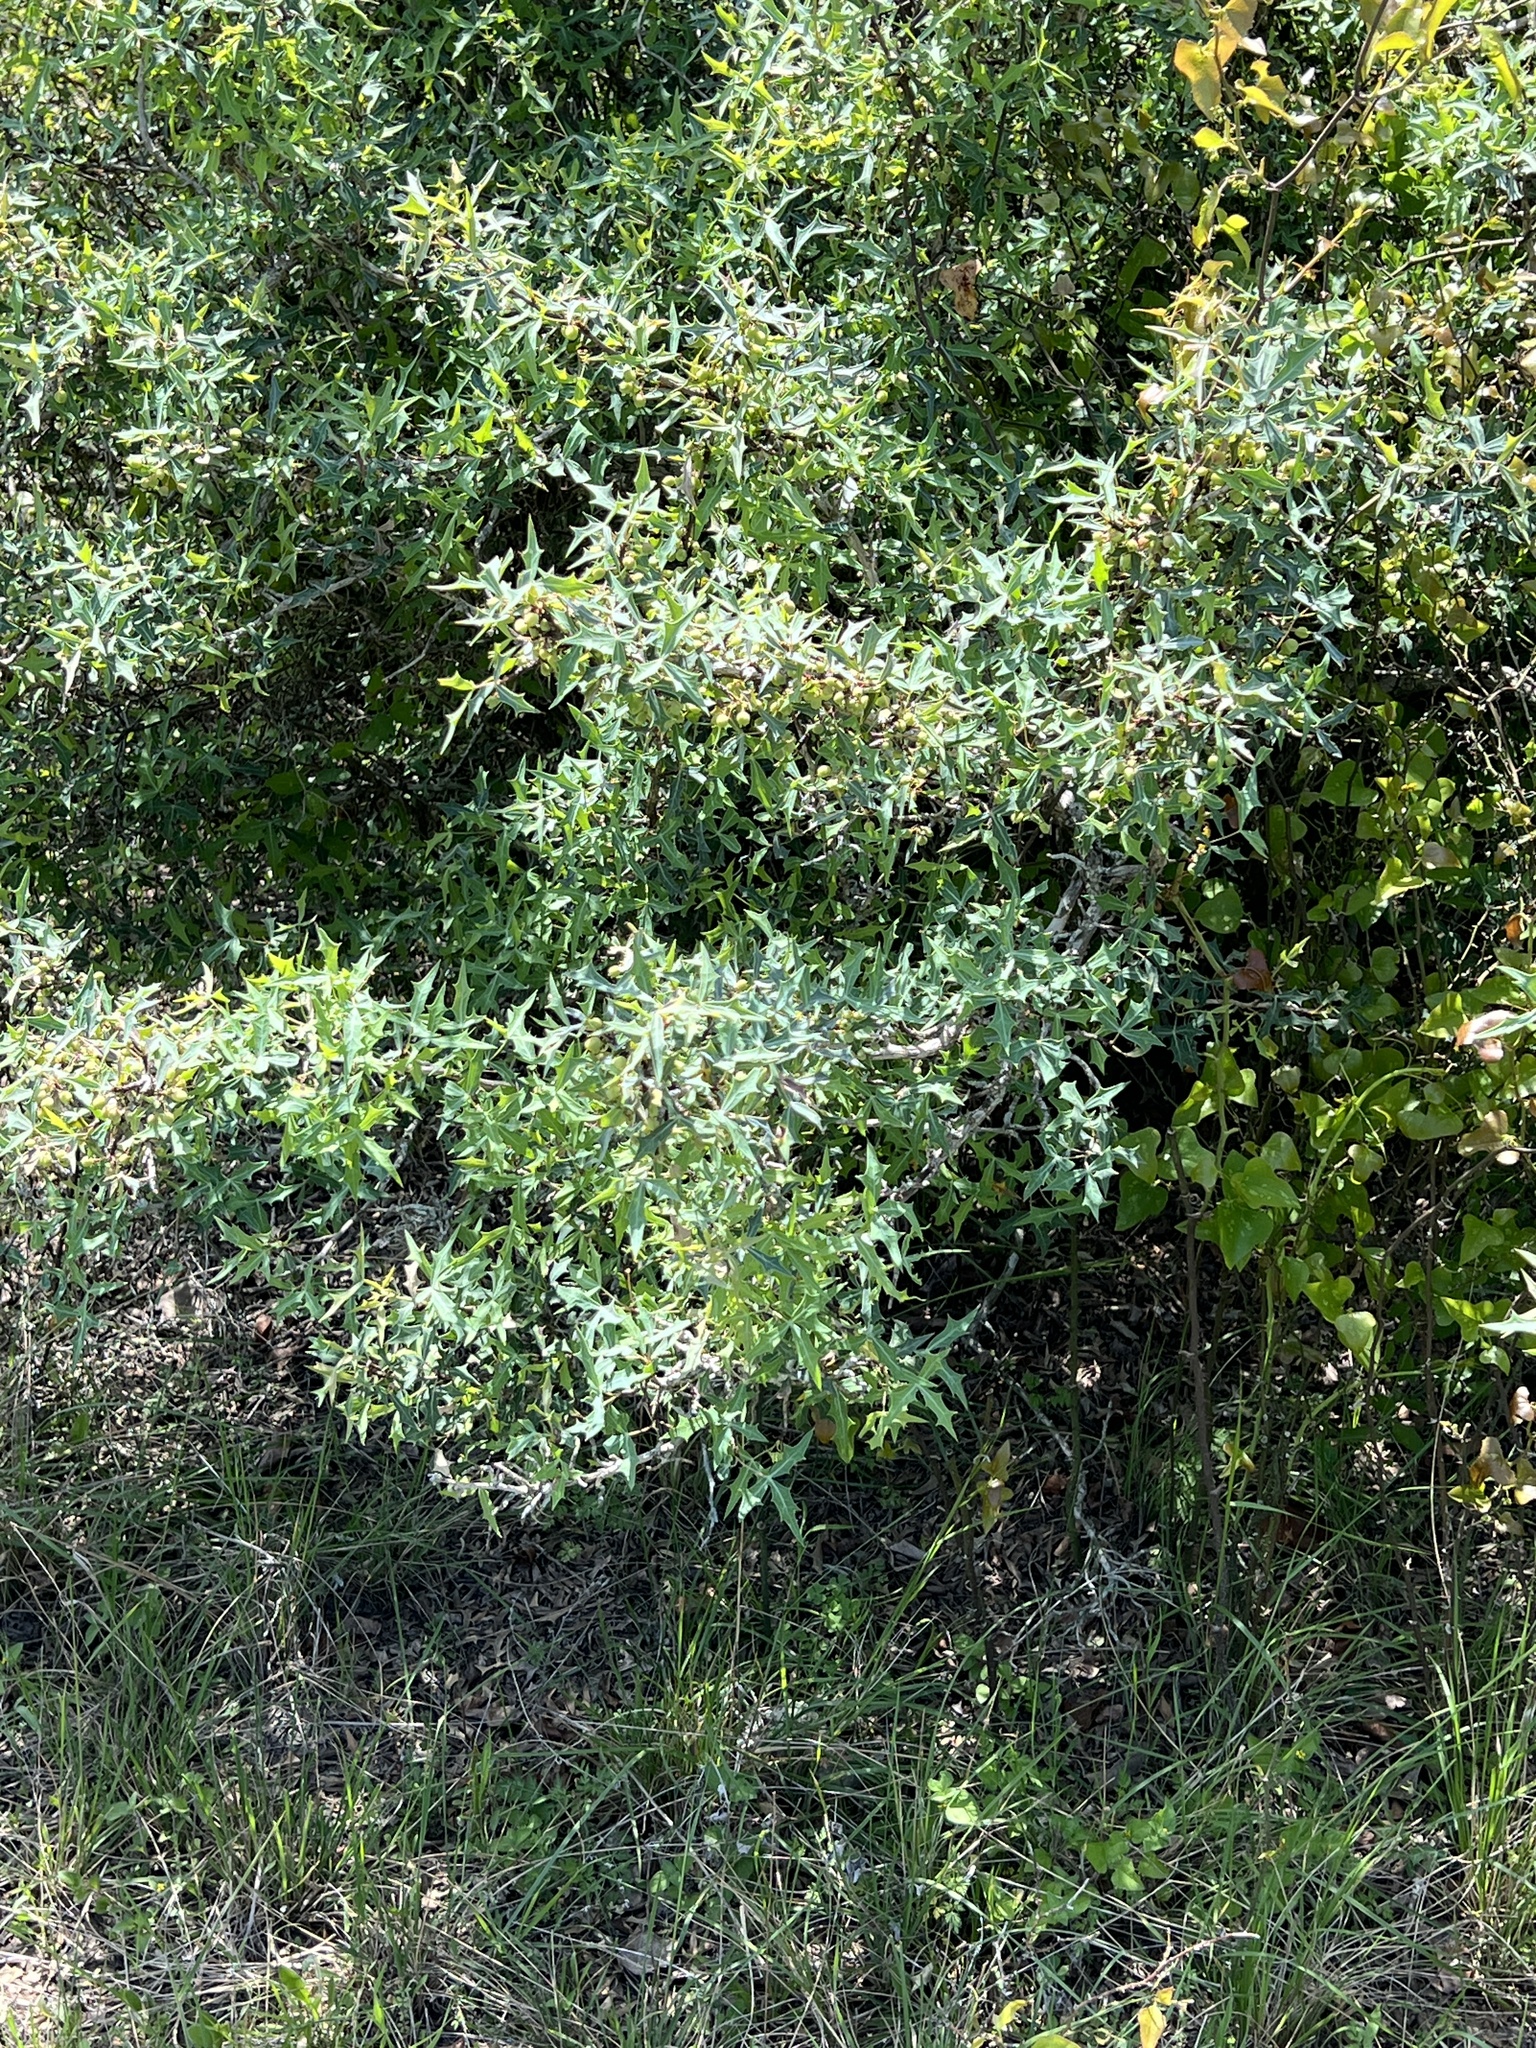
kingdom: Plantae
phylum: Tracheophyta
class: Magnoliopsida
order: Ranunculales
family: Berberidaceae
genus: Alloberberis
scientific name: Alloberberis trifoliolata
